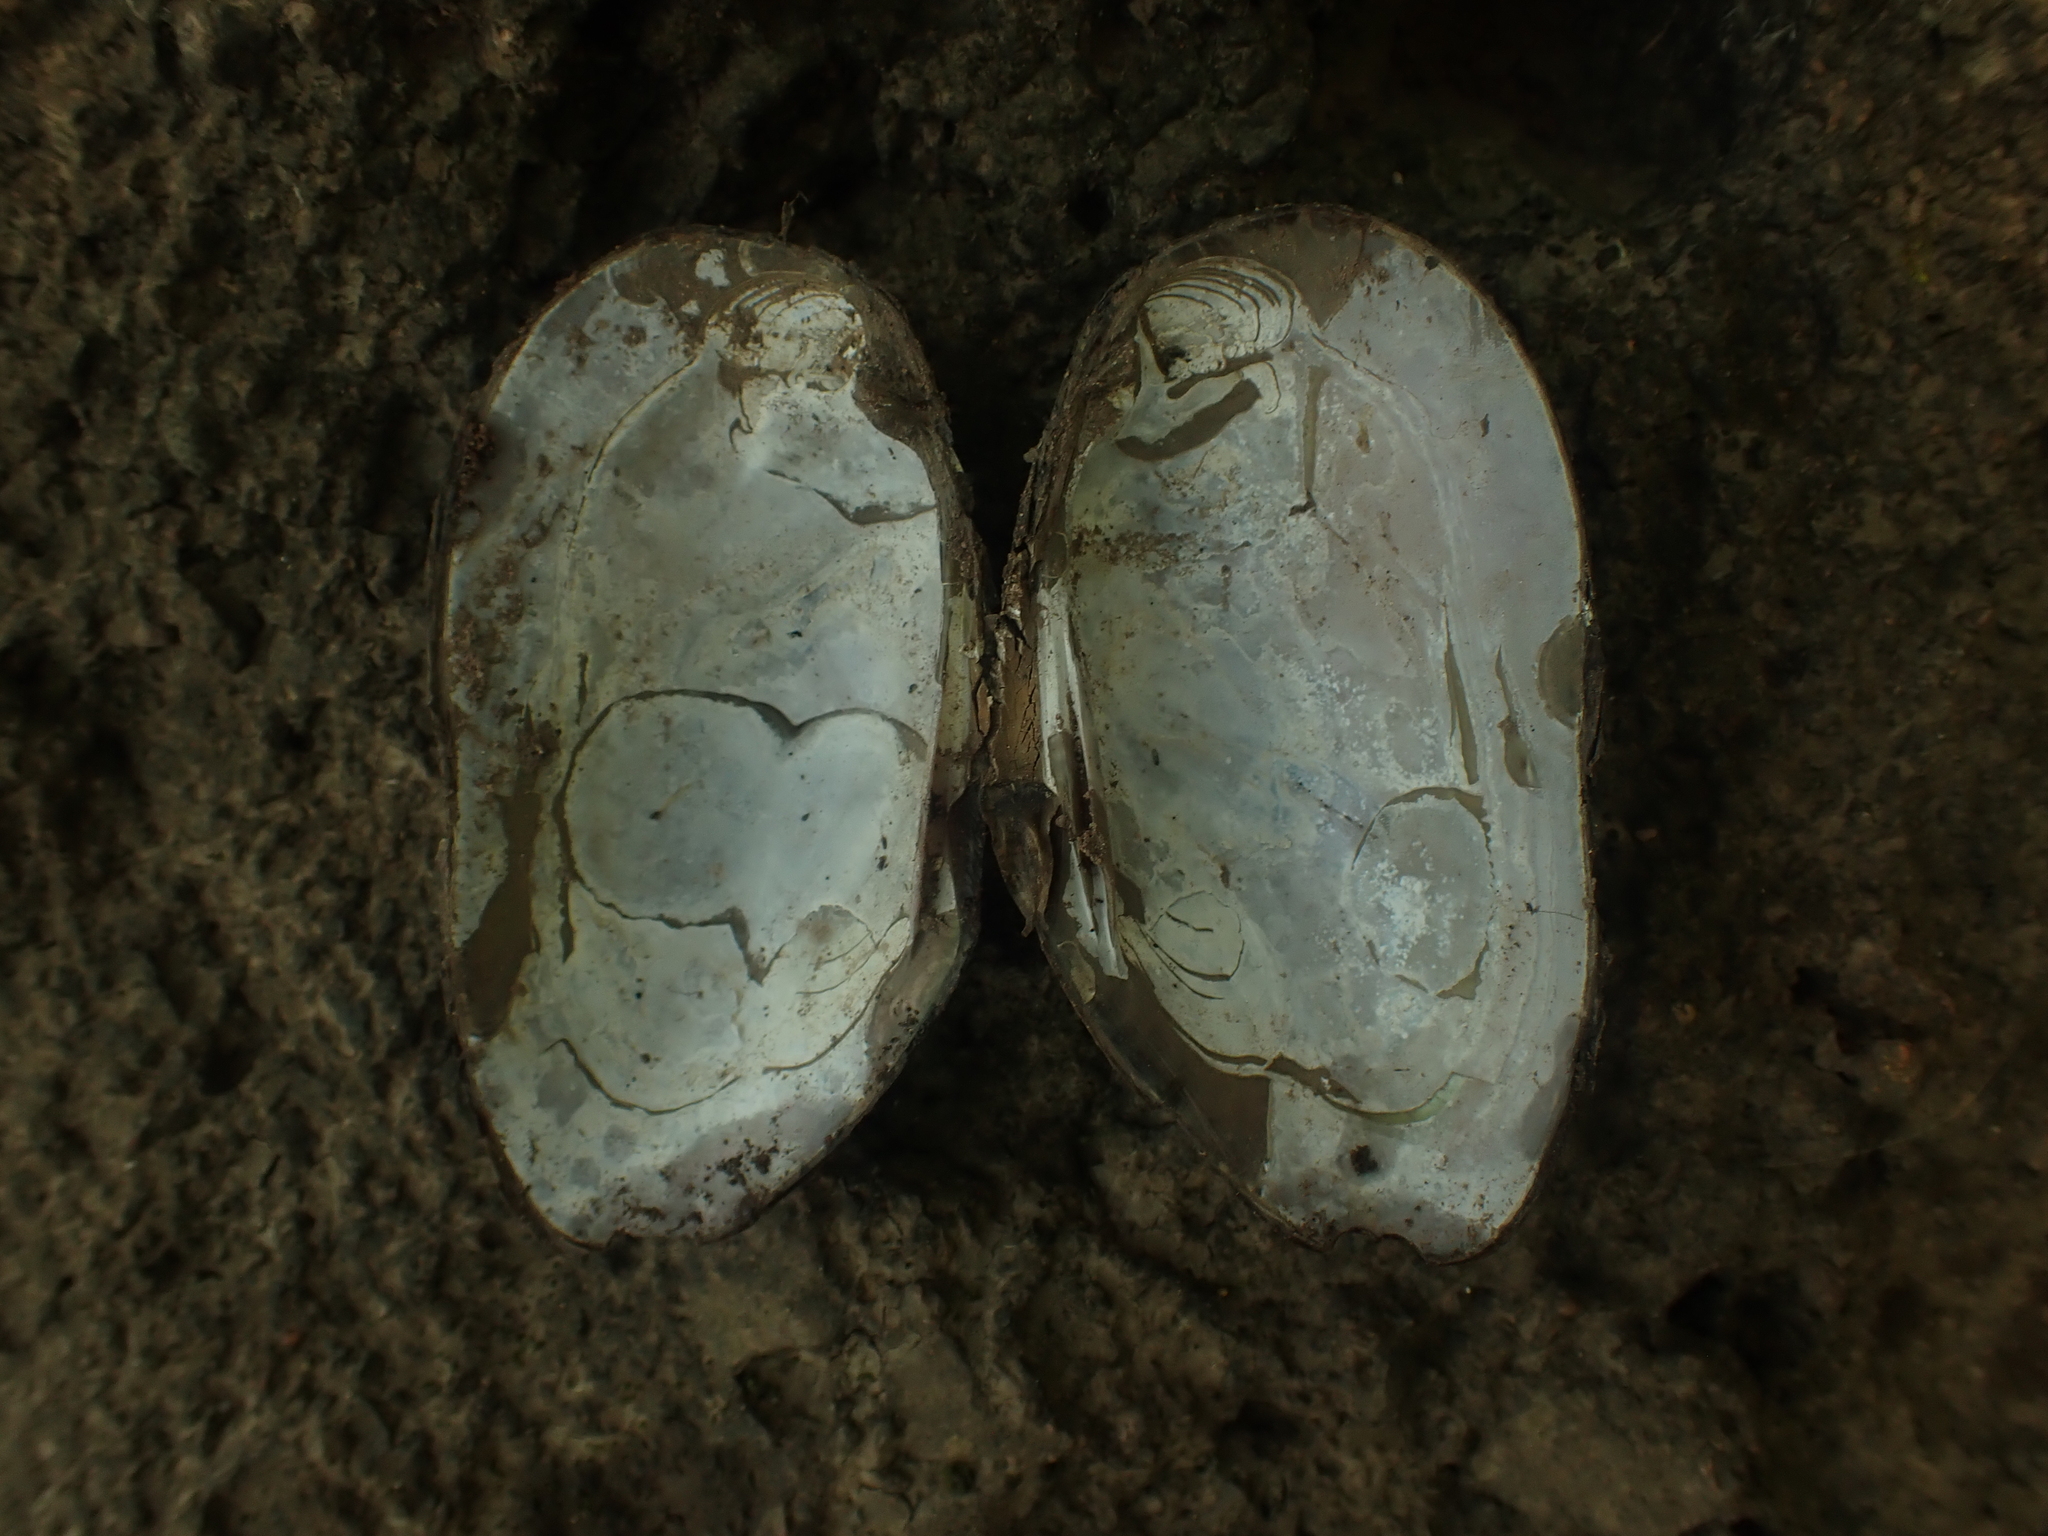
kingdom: Animalia
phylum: Mollusca
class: Bivalvia
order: Unionida
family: Unionidae
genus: Elliptio
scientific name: Elliptio complanata
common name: Eastern elliptio
